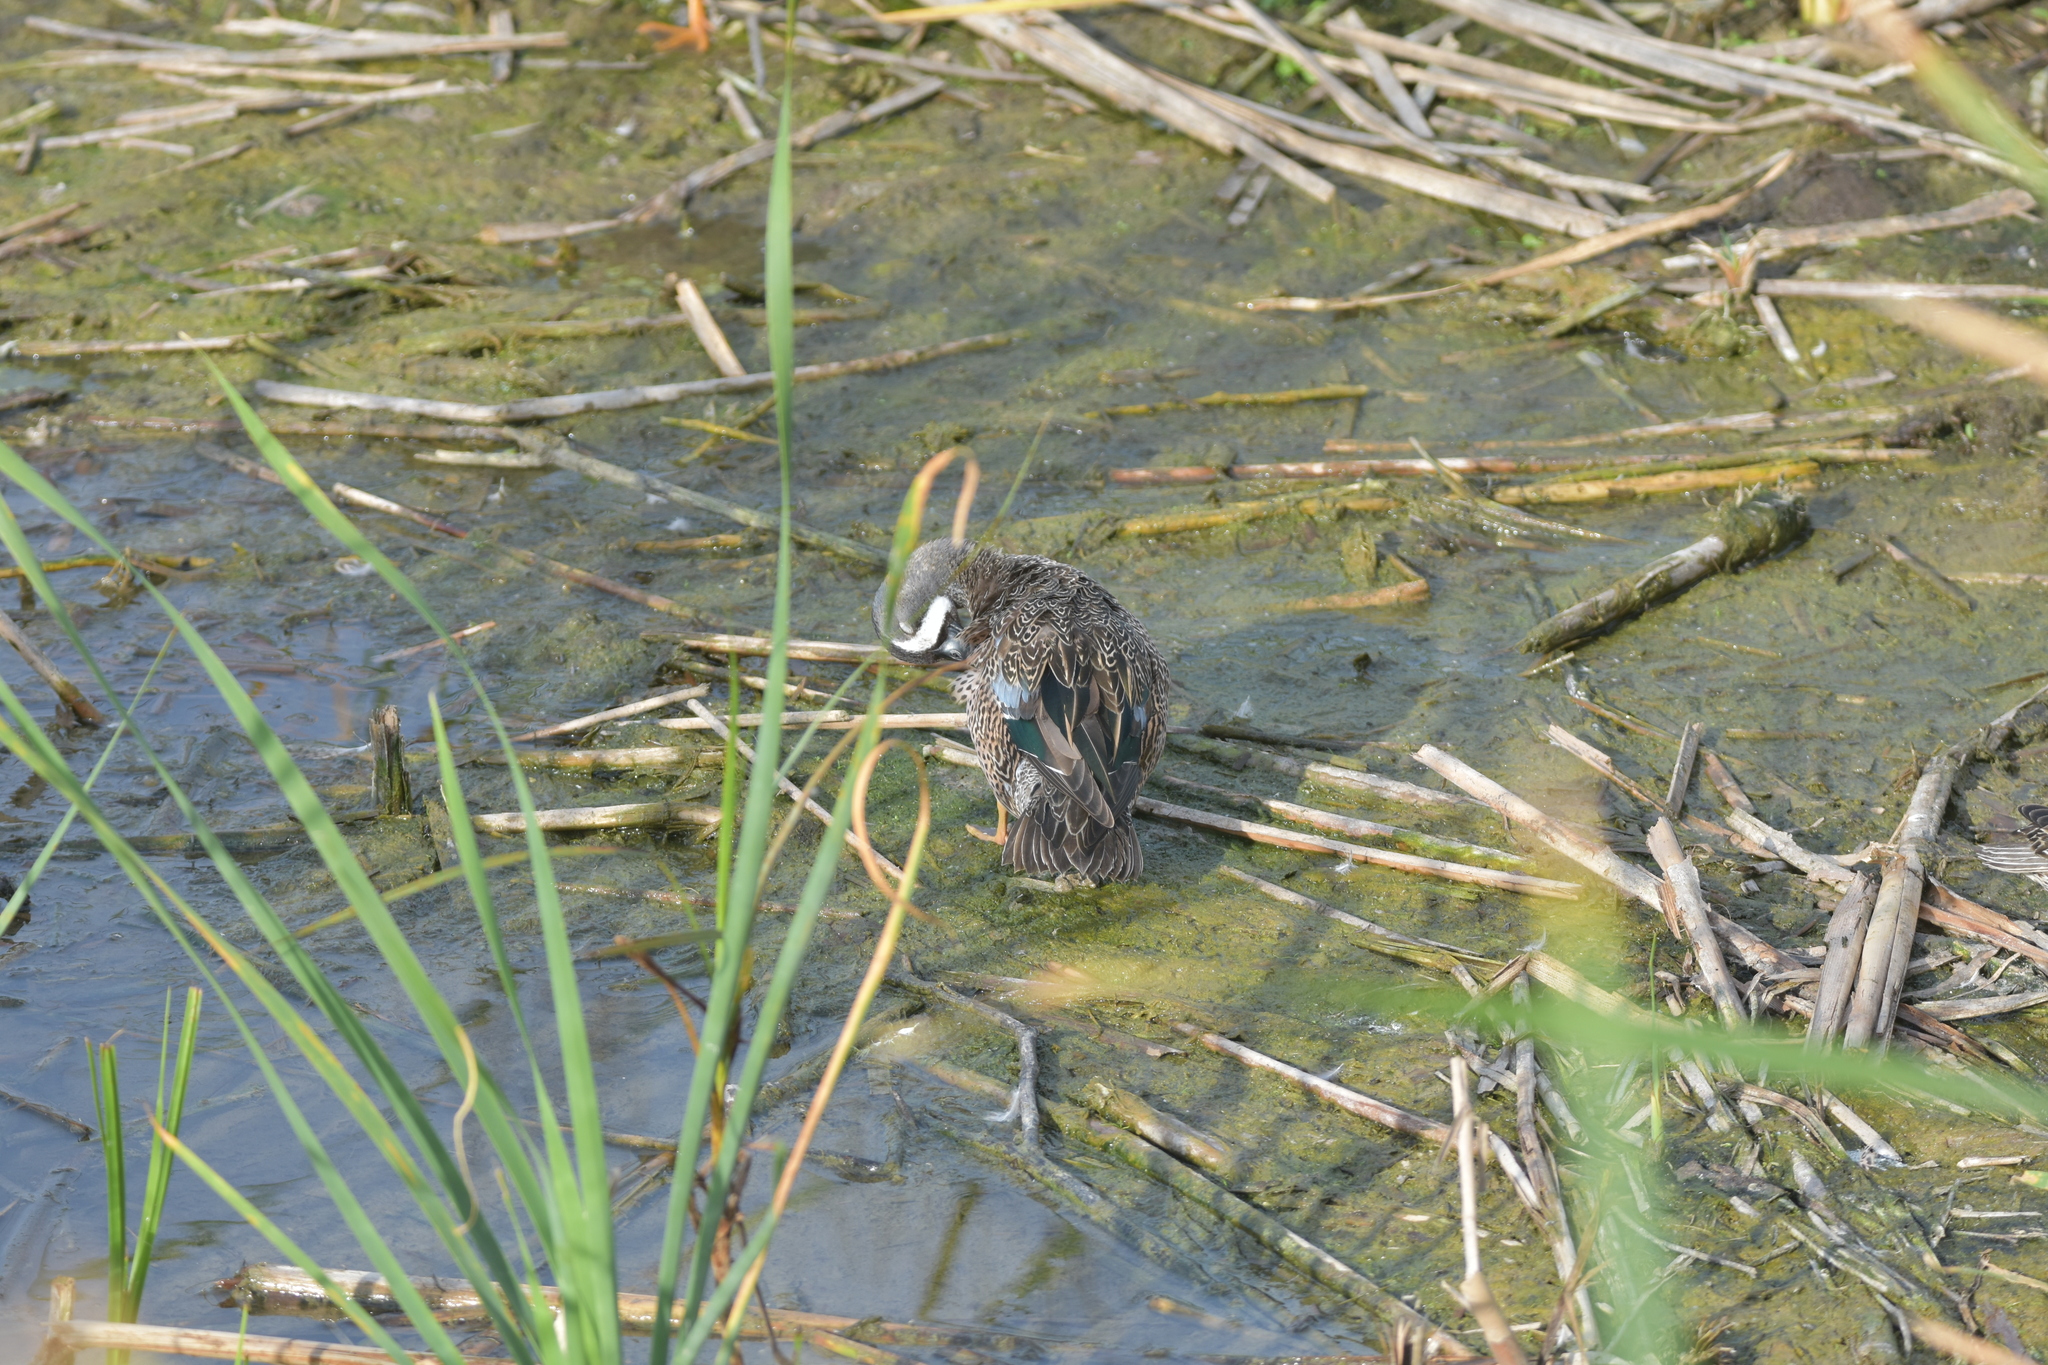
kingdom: Animalia
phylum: Chordata
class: Aves
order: Anseriformes
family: Anatidae
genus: Spatula
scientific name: Spatula discors
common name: Blue-winged teal
